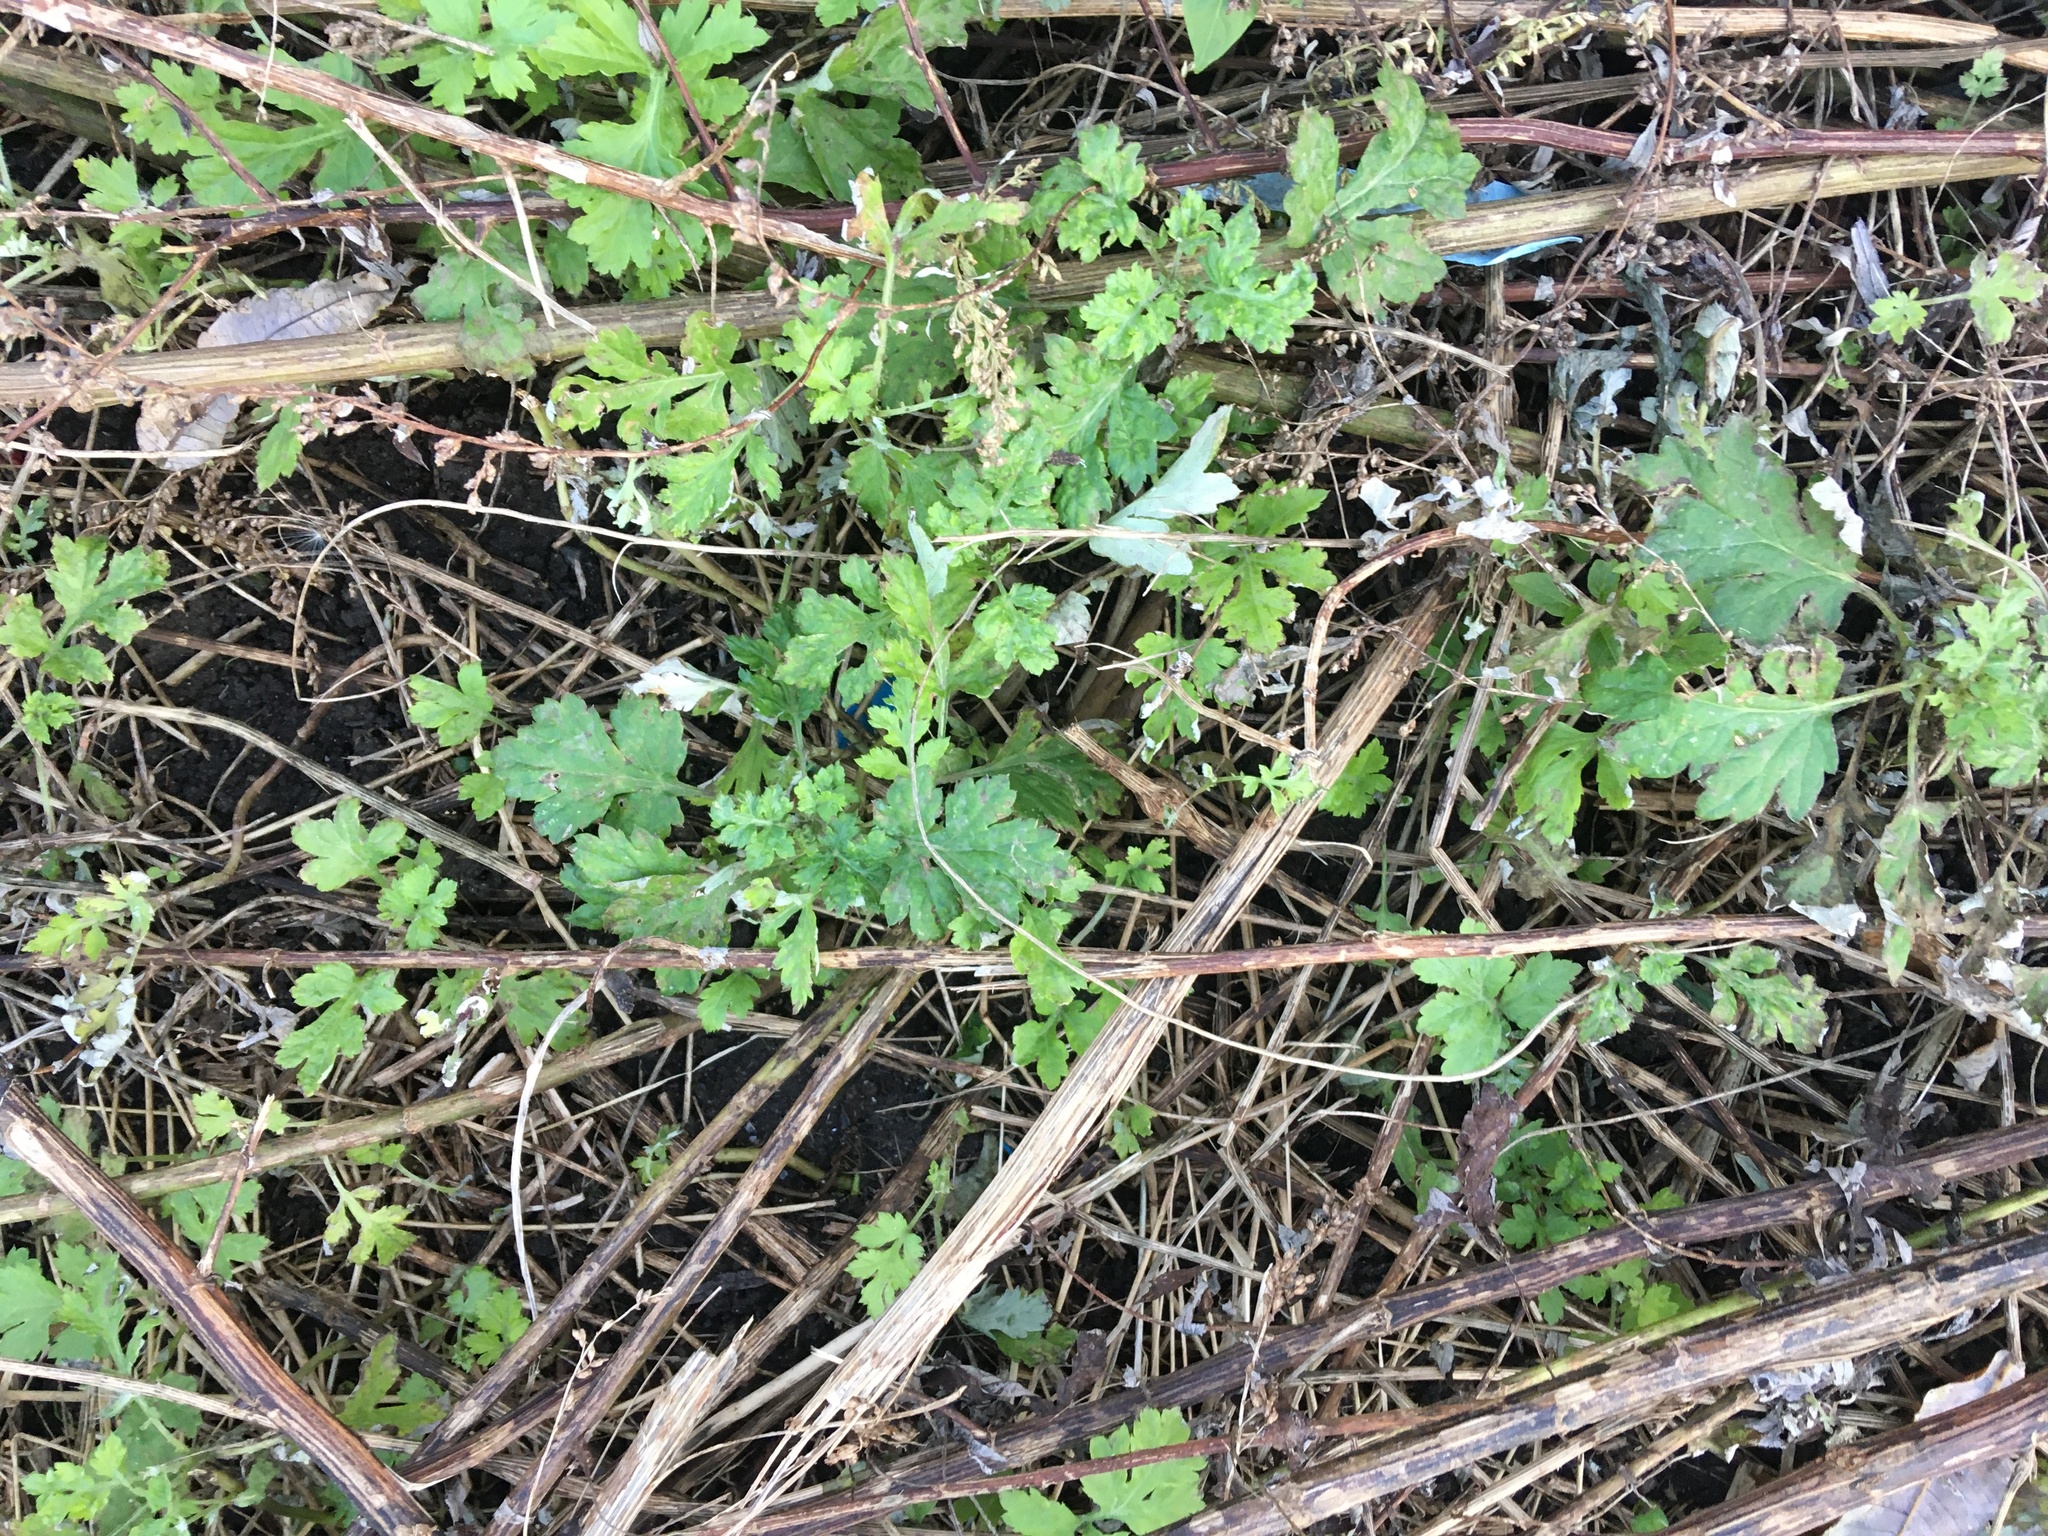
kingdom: Plantae
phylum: Tracheophyta
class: Magnoliopsida
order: Asterales
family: Asteraceae
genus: Artemisia
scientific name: Artemisia vulgaris
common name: Mugwort
